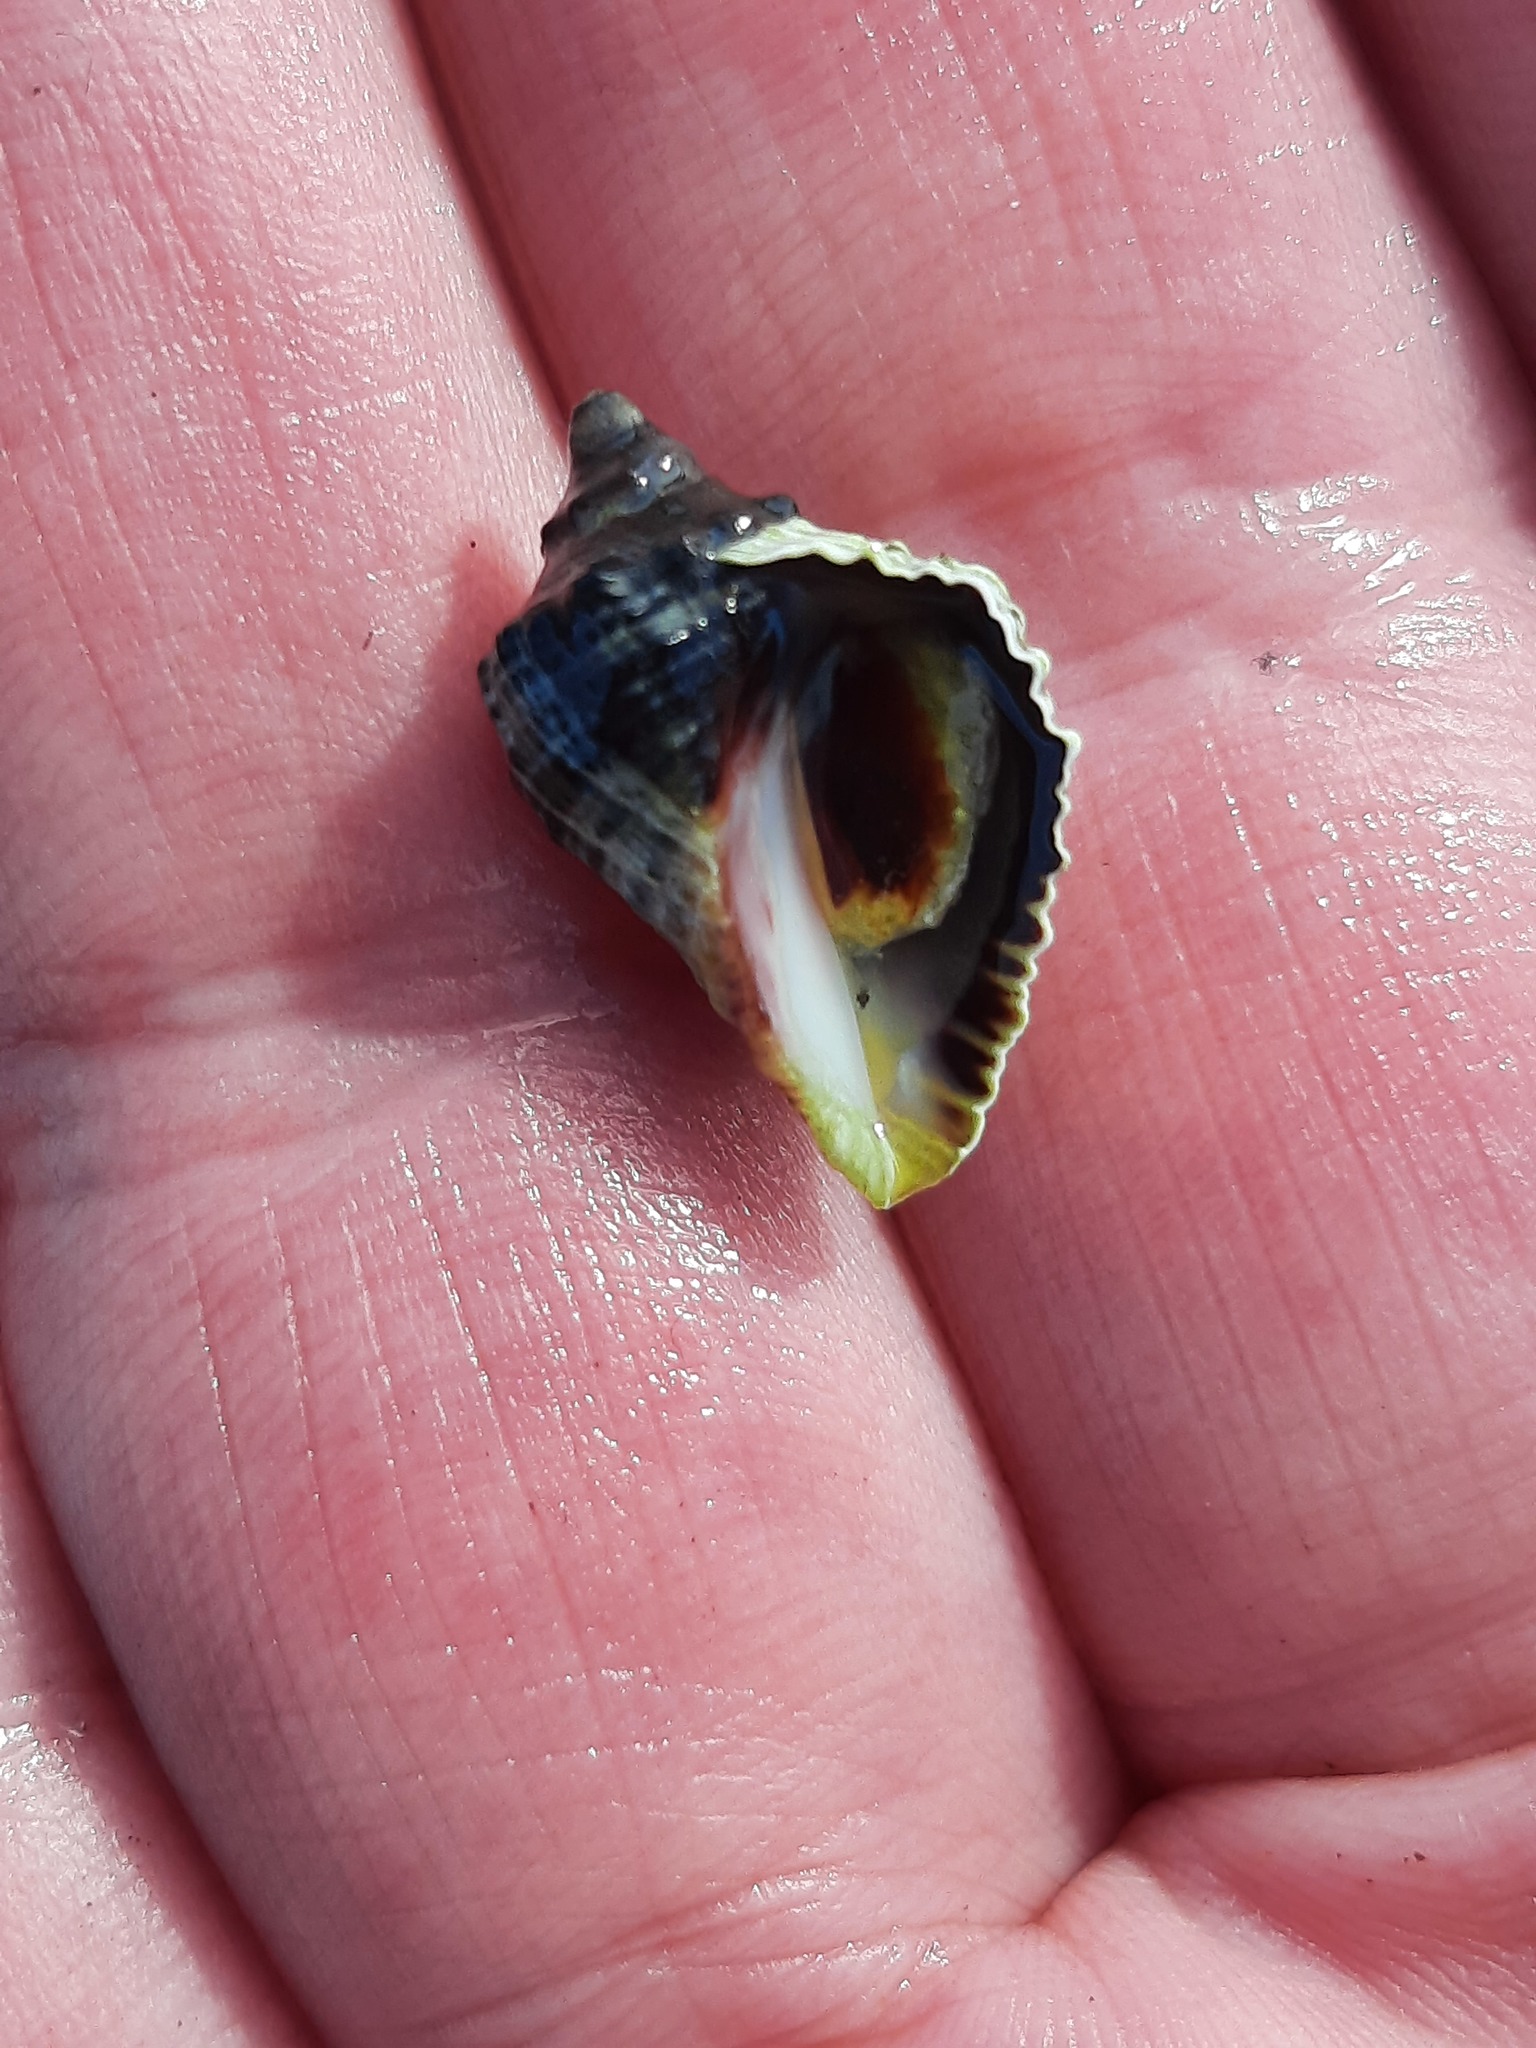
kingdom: Animalia
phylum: Mollusca
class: Gastropoda
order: Neogastropoda
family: Muricidae
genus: Haustrum
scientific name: Haustrum haustorium
